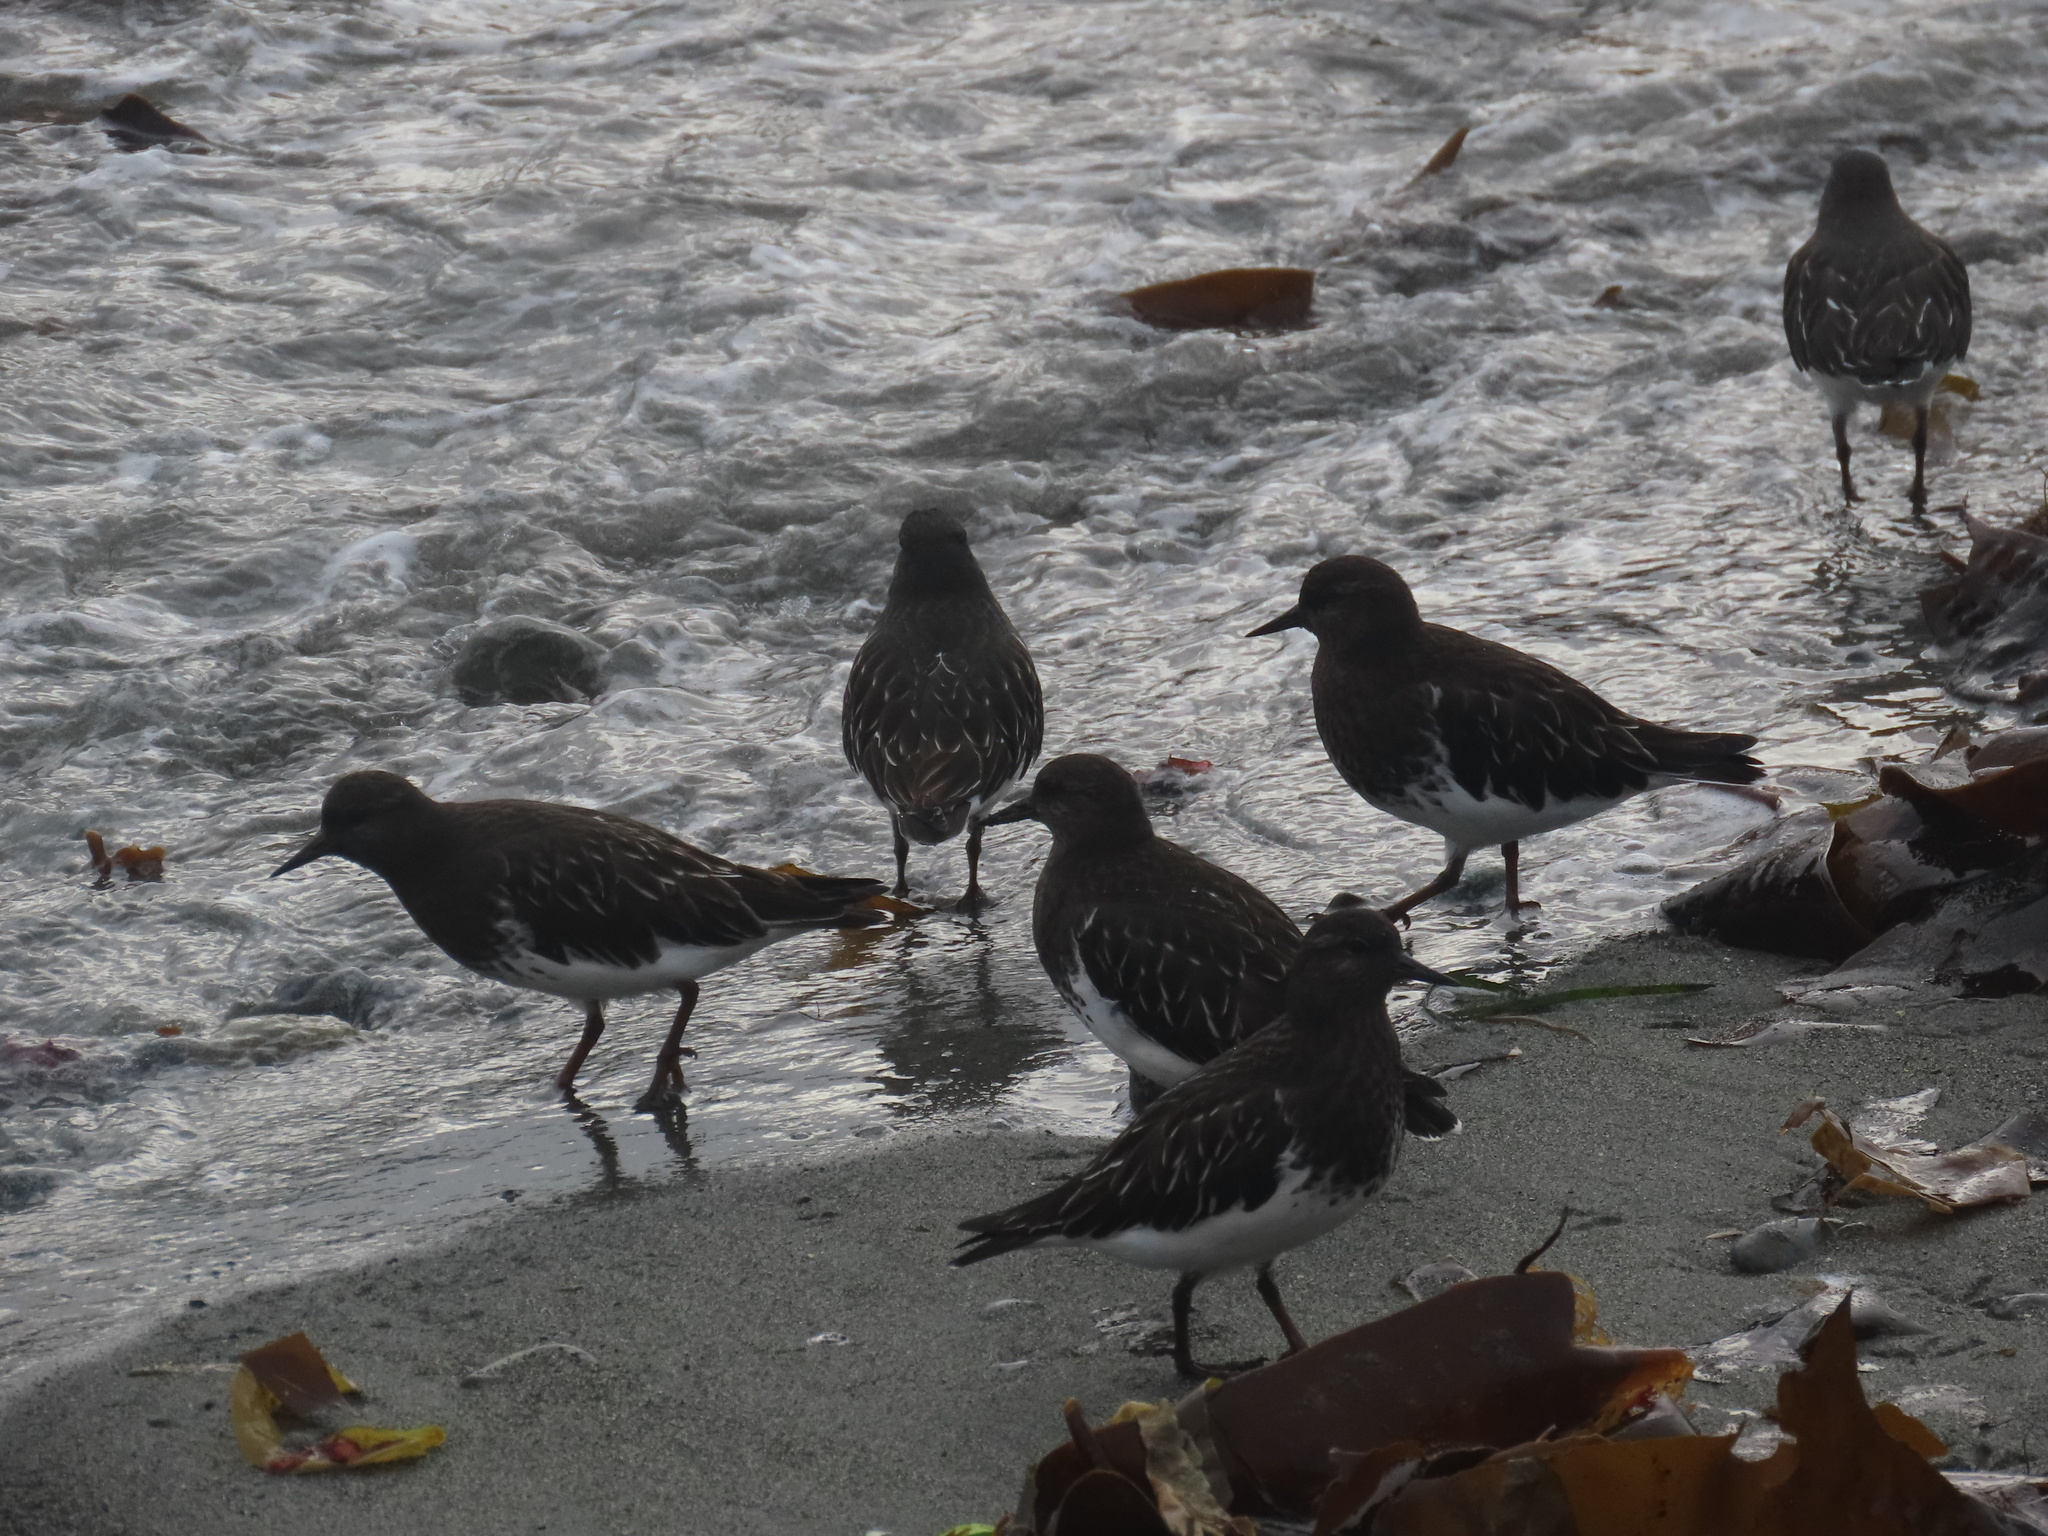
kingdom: Animalia
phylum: Chordata
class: Aves
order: Charadriiformes
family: Scolopacidae
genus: Arenaria
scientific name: Arenaria melanocephala
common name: Black turnstone
